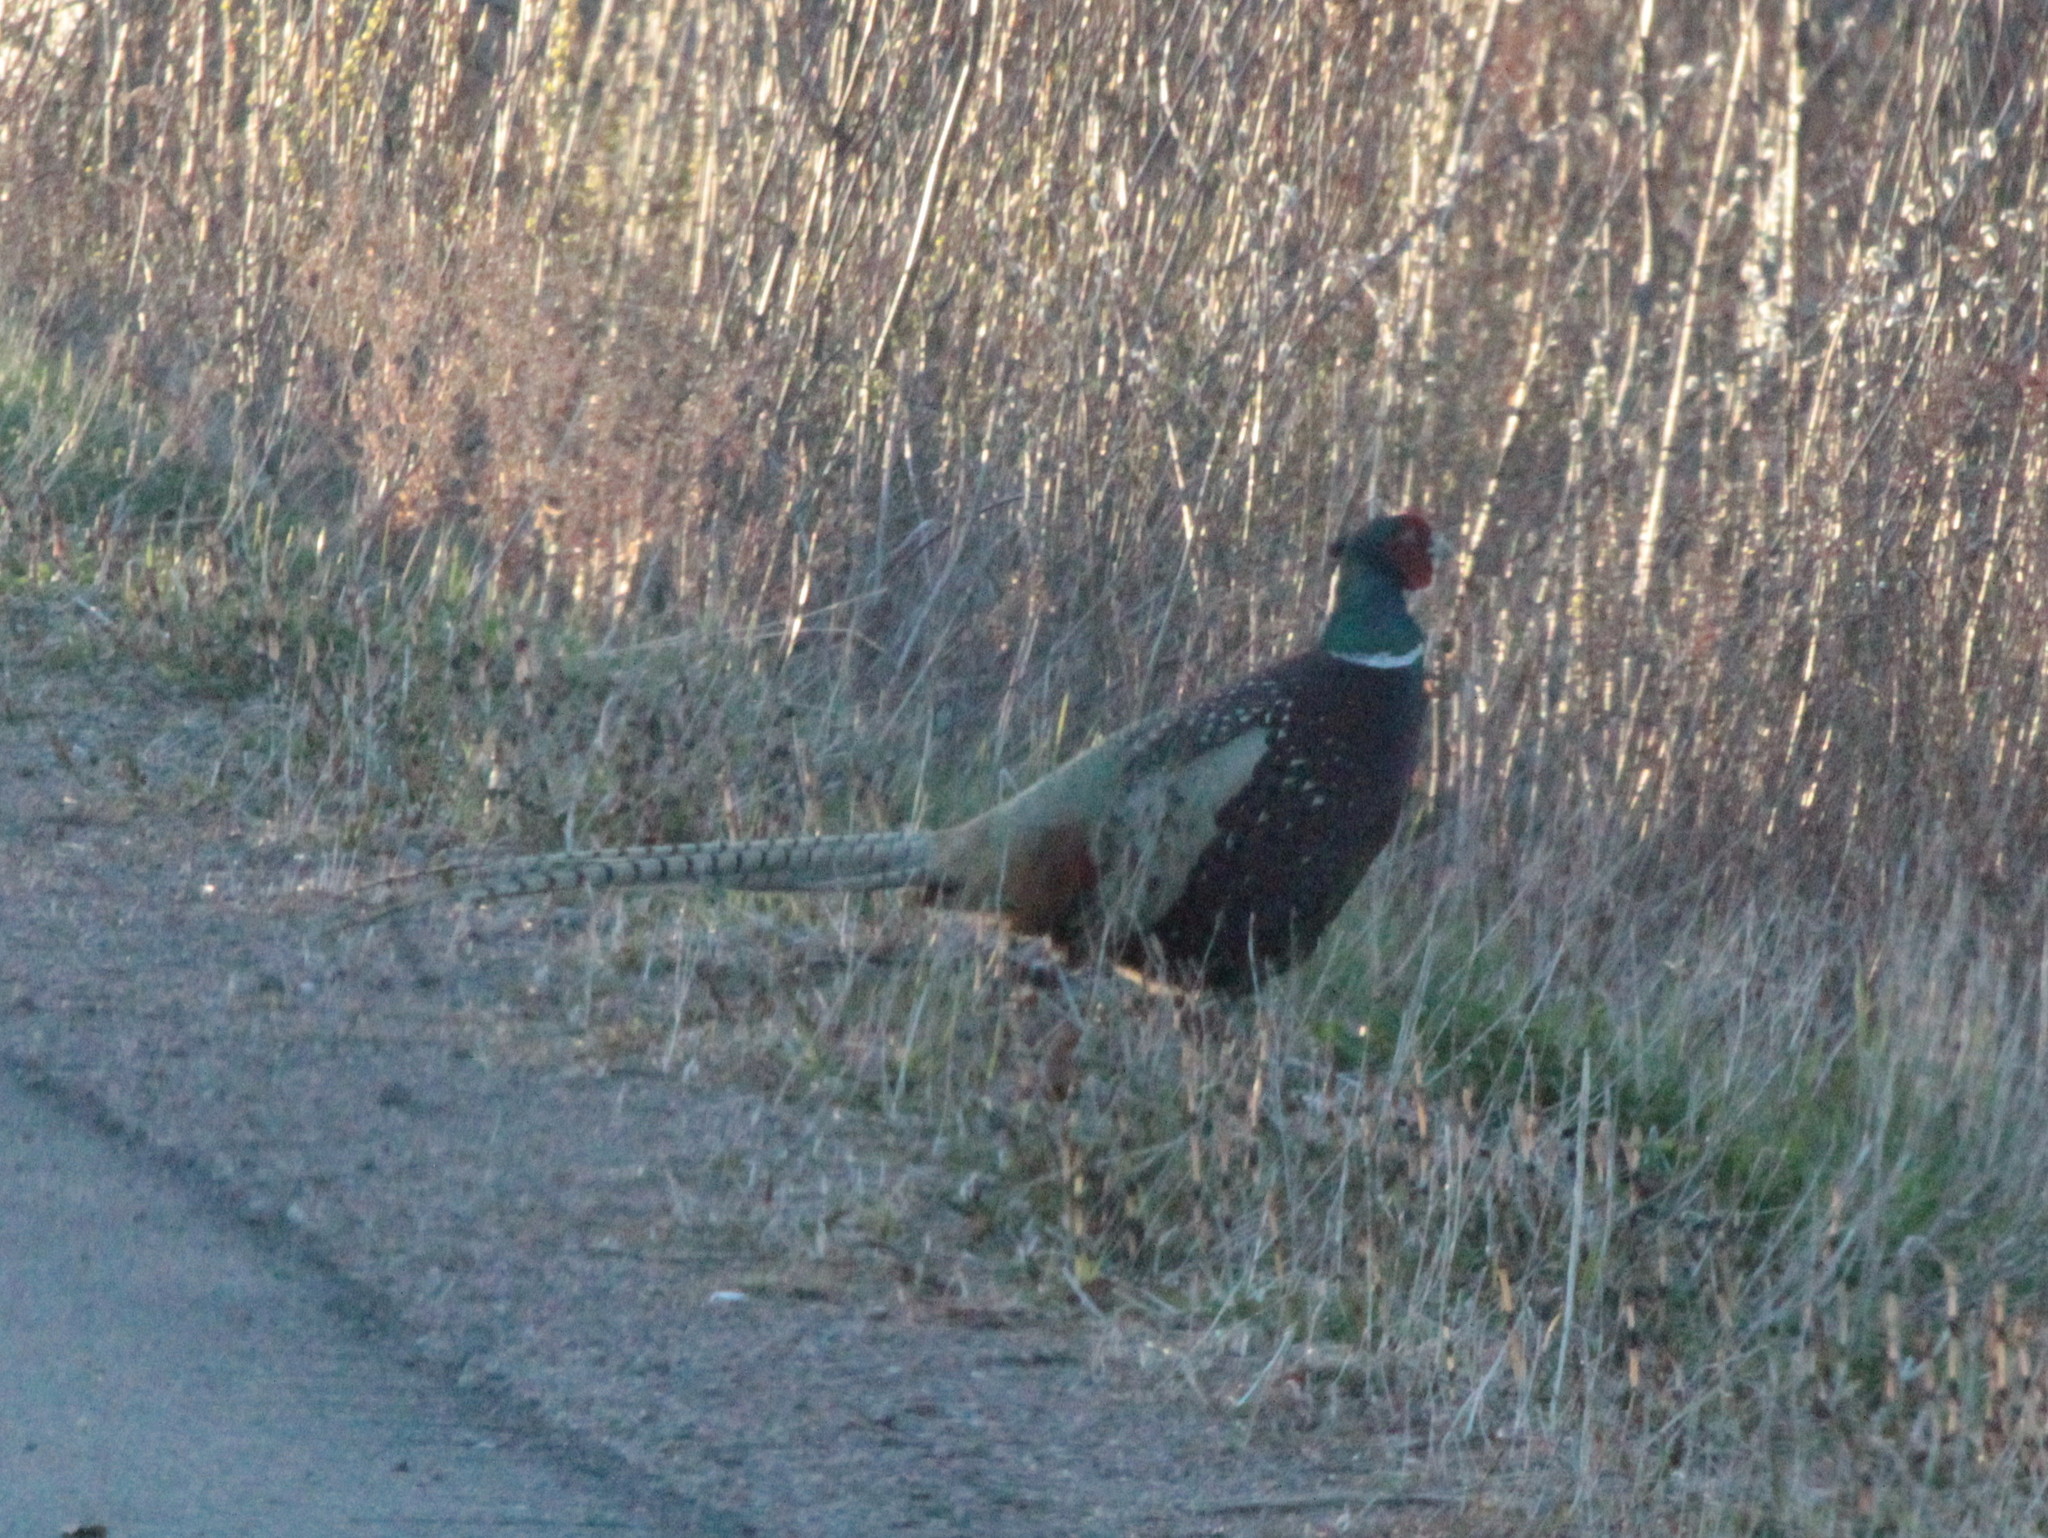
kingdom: Animalia
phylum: Chordata
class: Aves
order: Galliformes
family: Phasianidae
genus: Phasianus
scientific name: Phasianus colchicus
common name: Common pheasant
